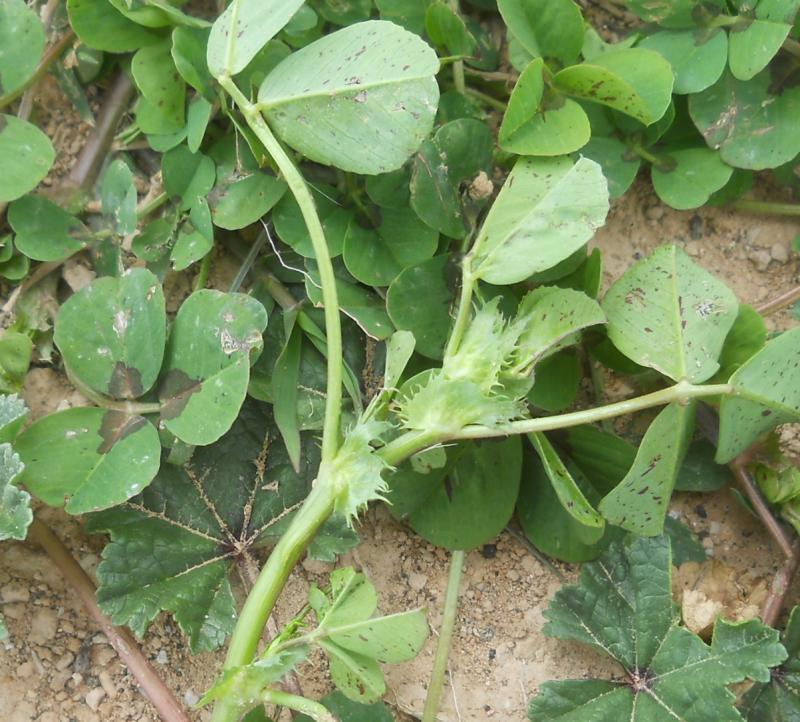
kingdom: Plantae
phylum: Tracheophyta
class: Magnoliopsida
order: Fabales
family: Fabaceae
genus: Medicago
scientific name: Medicago arabica
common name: Spotted medick
